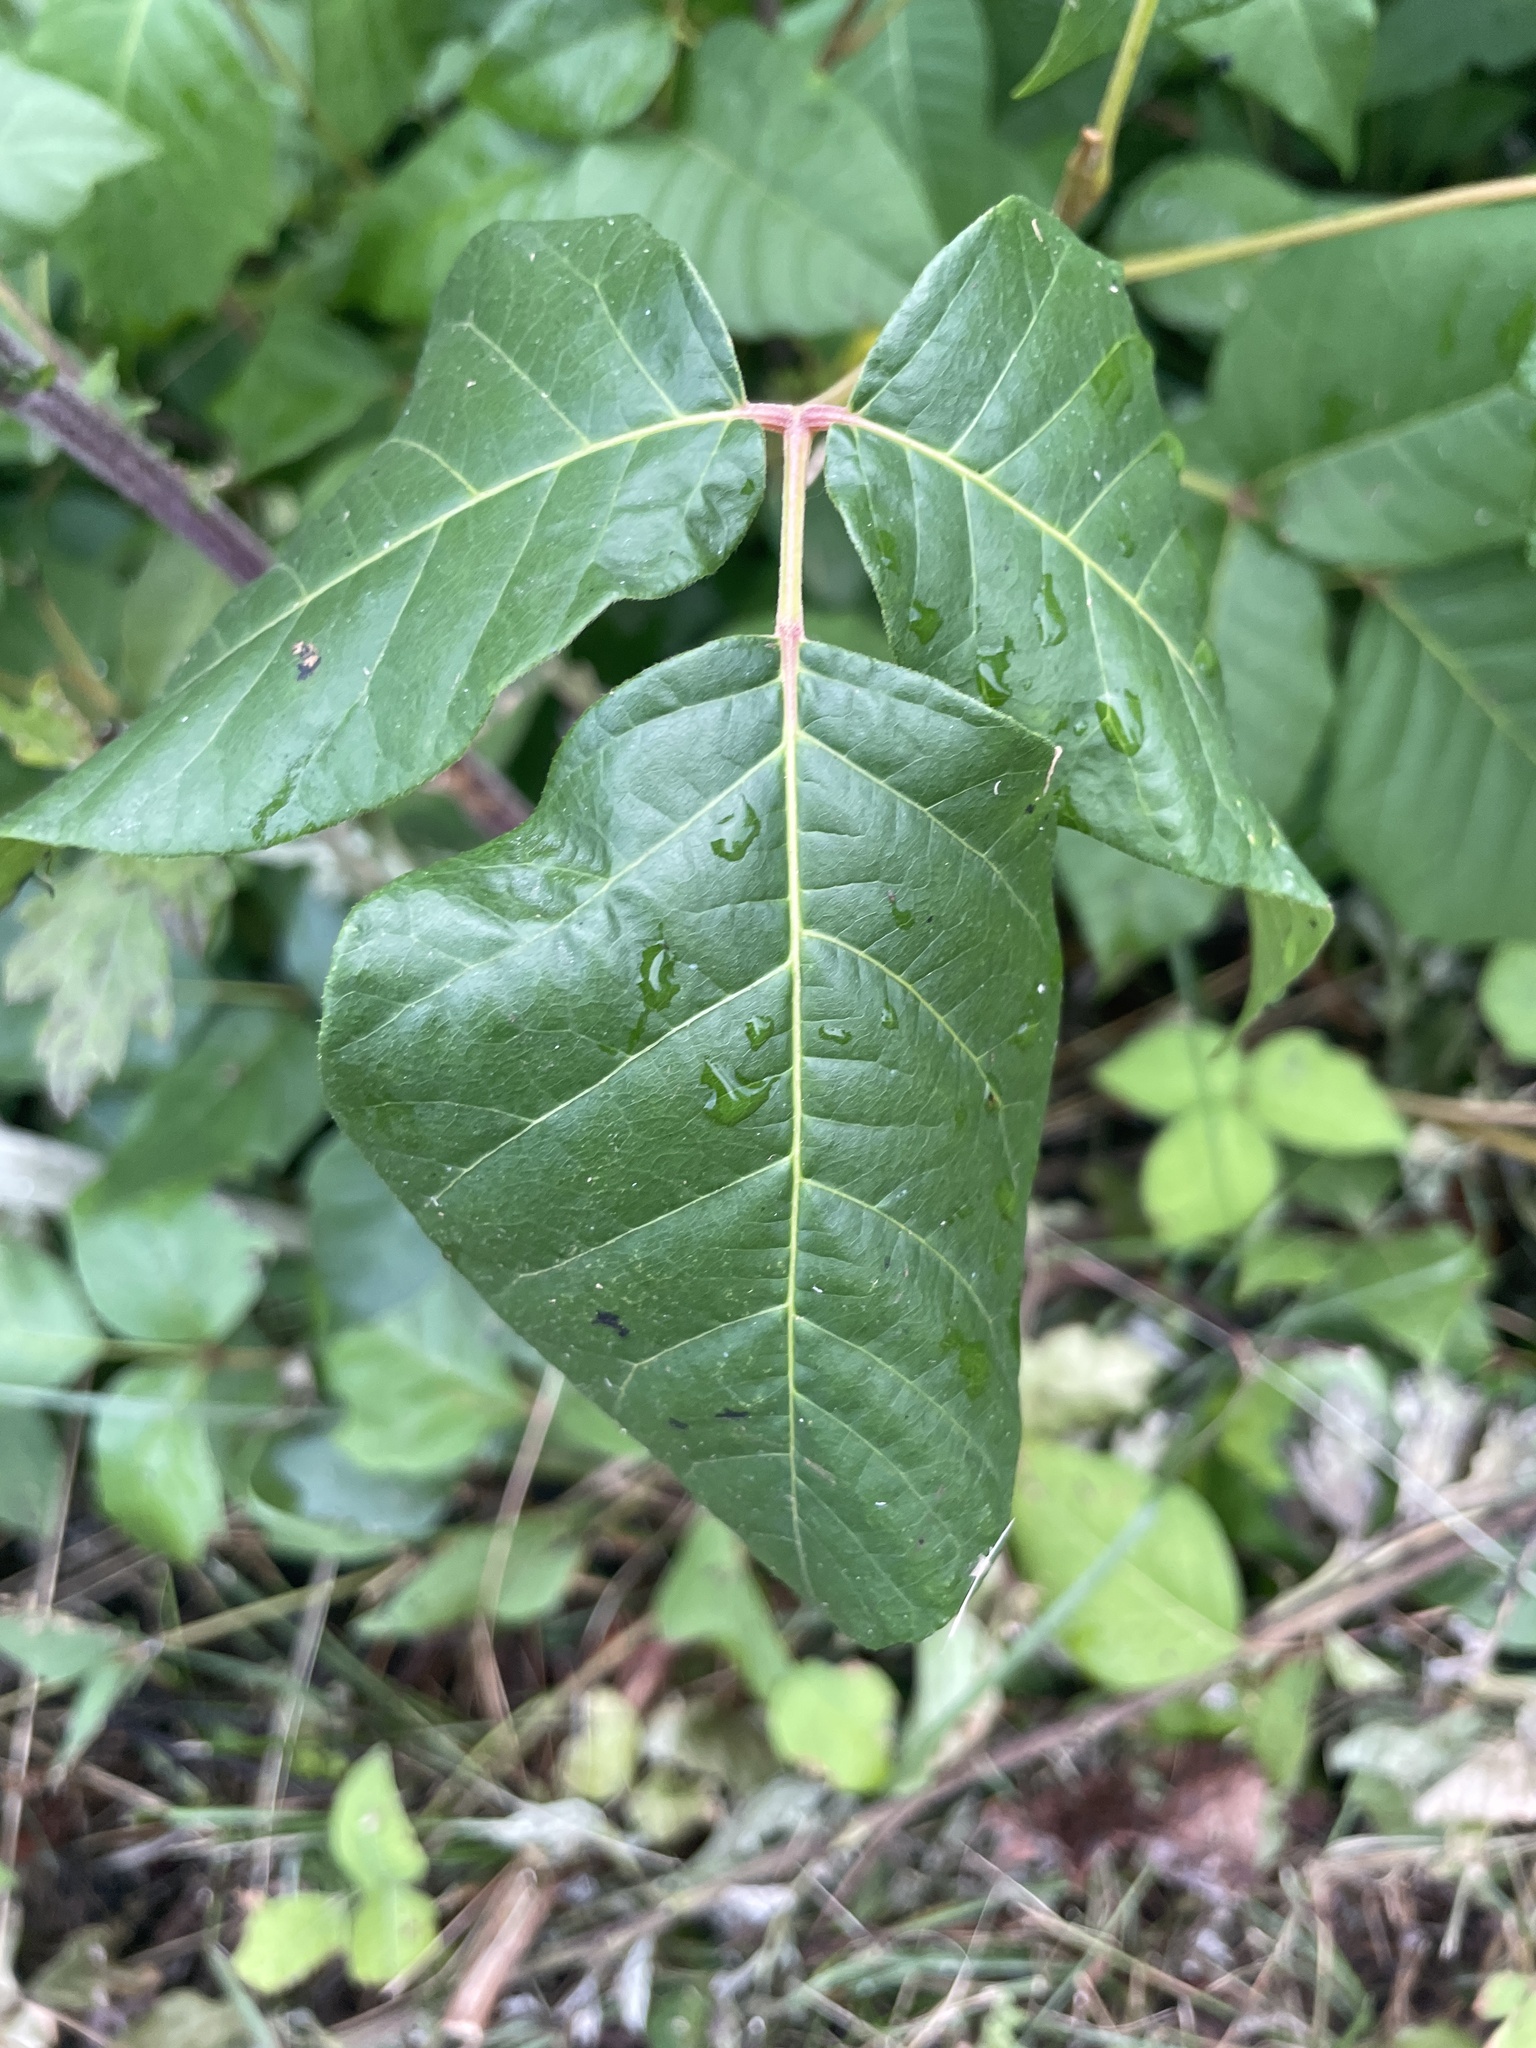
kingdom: Plantae
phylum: Tracheophyta
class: Magnoliopsida
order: Sapindales
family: Anacardiaceae
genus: Toxicodendron
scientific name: Toxicodendron radicans
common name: Poison ivy
